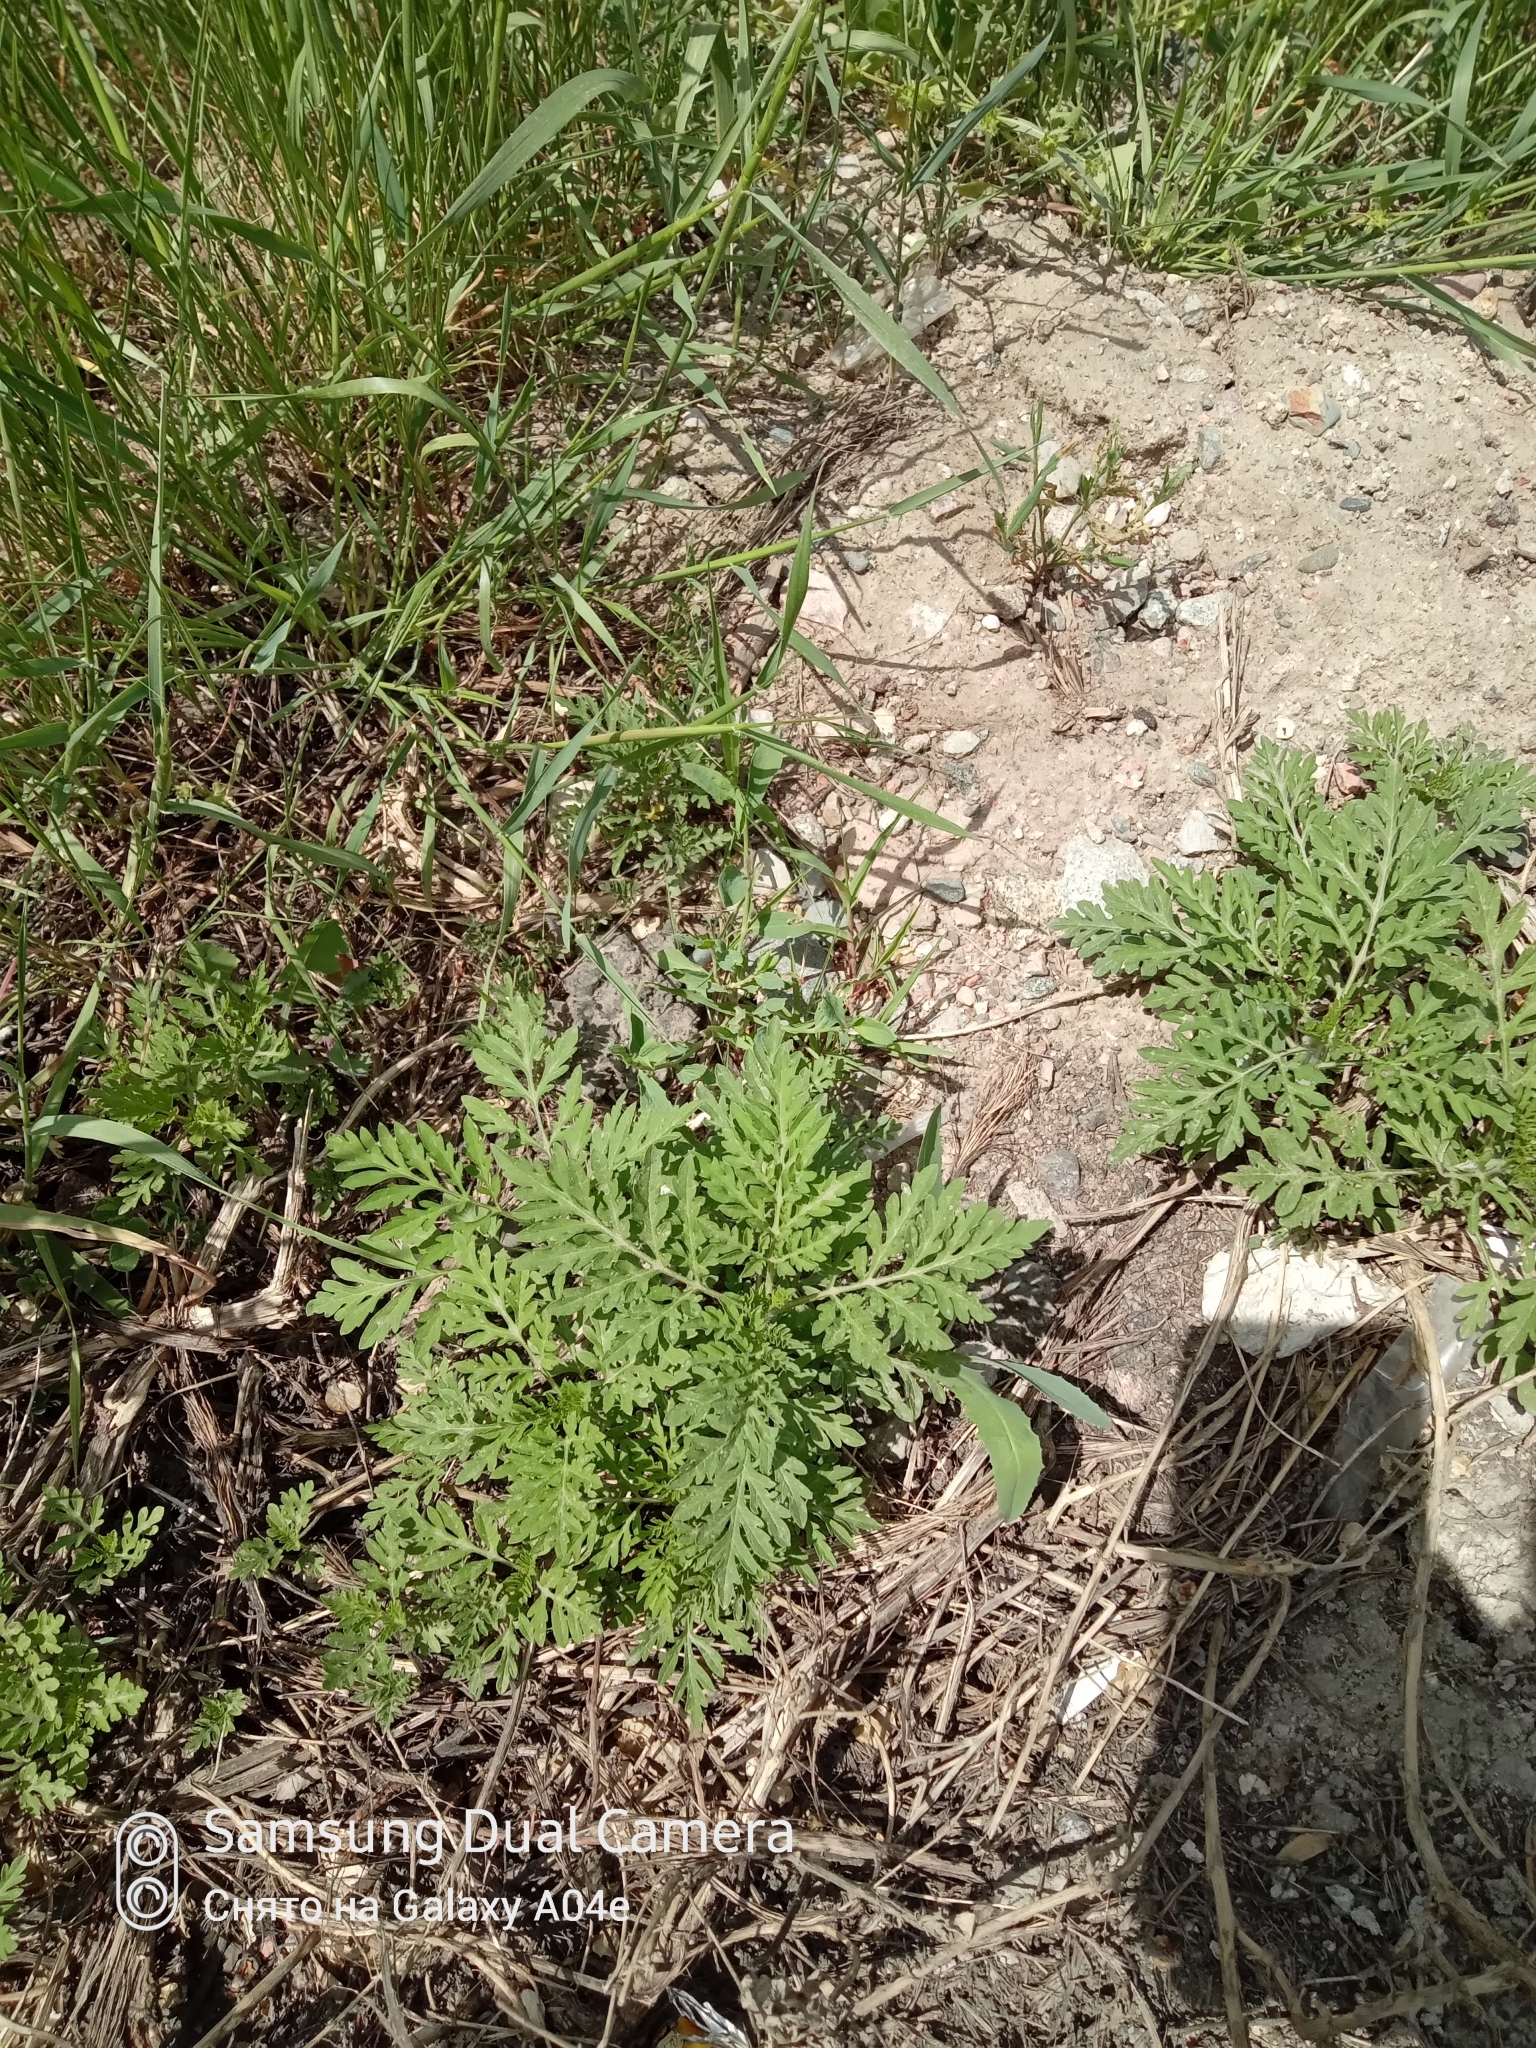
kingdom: Plantae
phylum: Tracheophyta
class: Magnoliopsida
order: Asterales
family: Asteraceae
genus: Ambrosia
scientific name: Ambrosia artemisiifolia
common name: Annual ragweed
